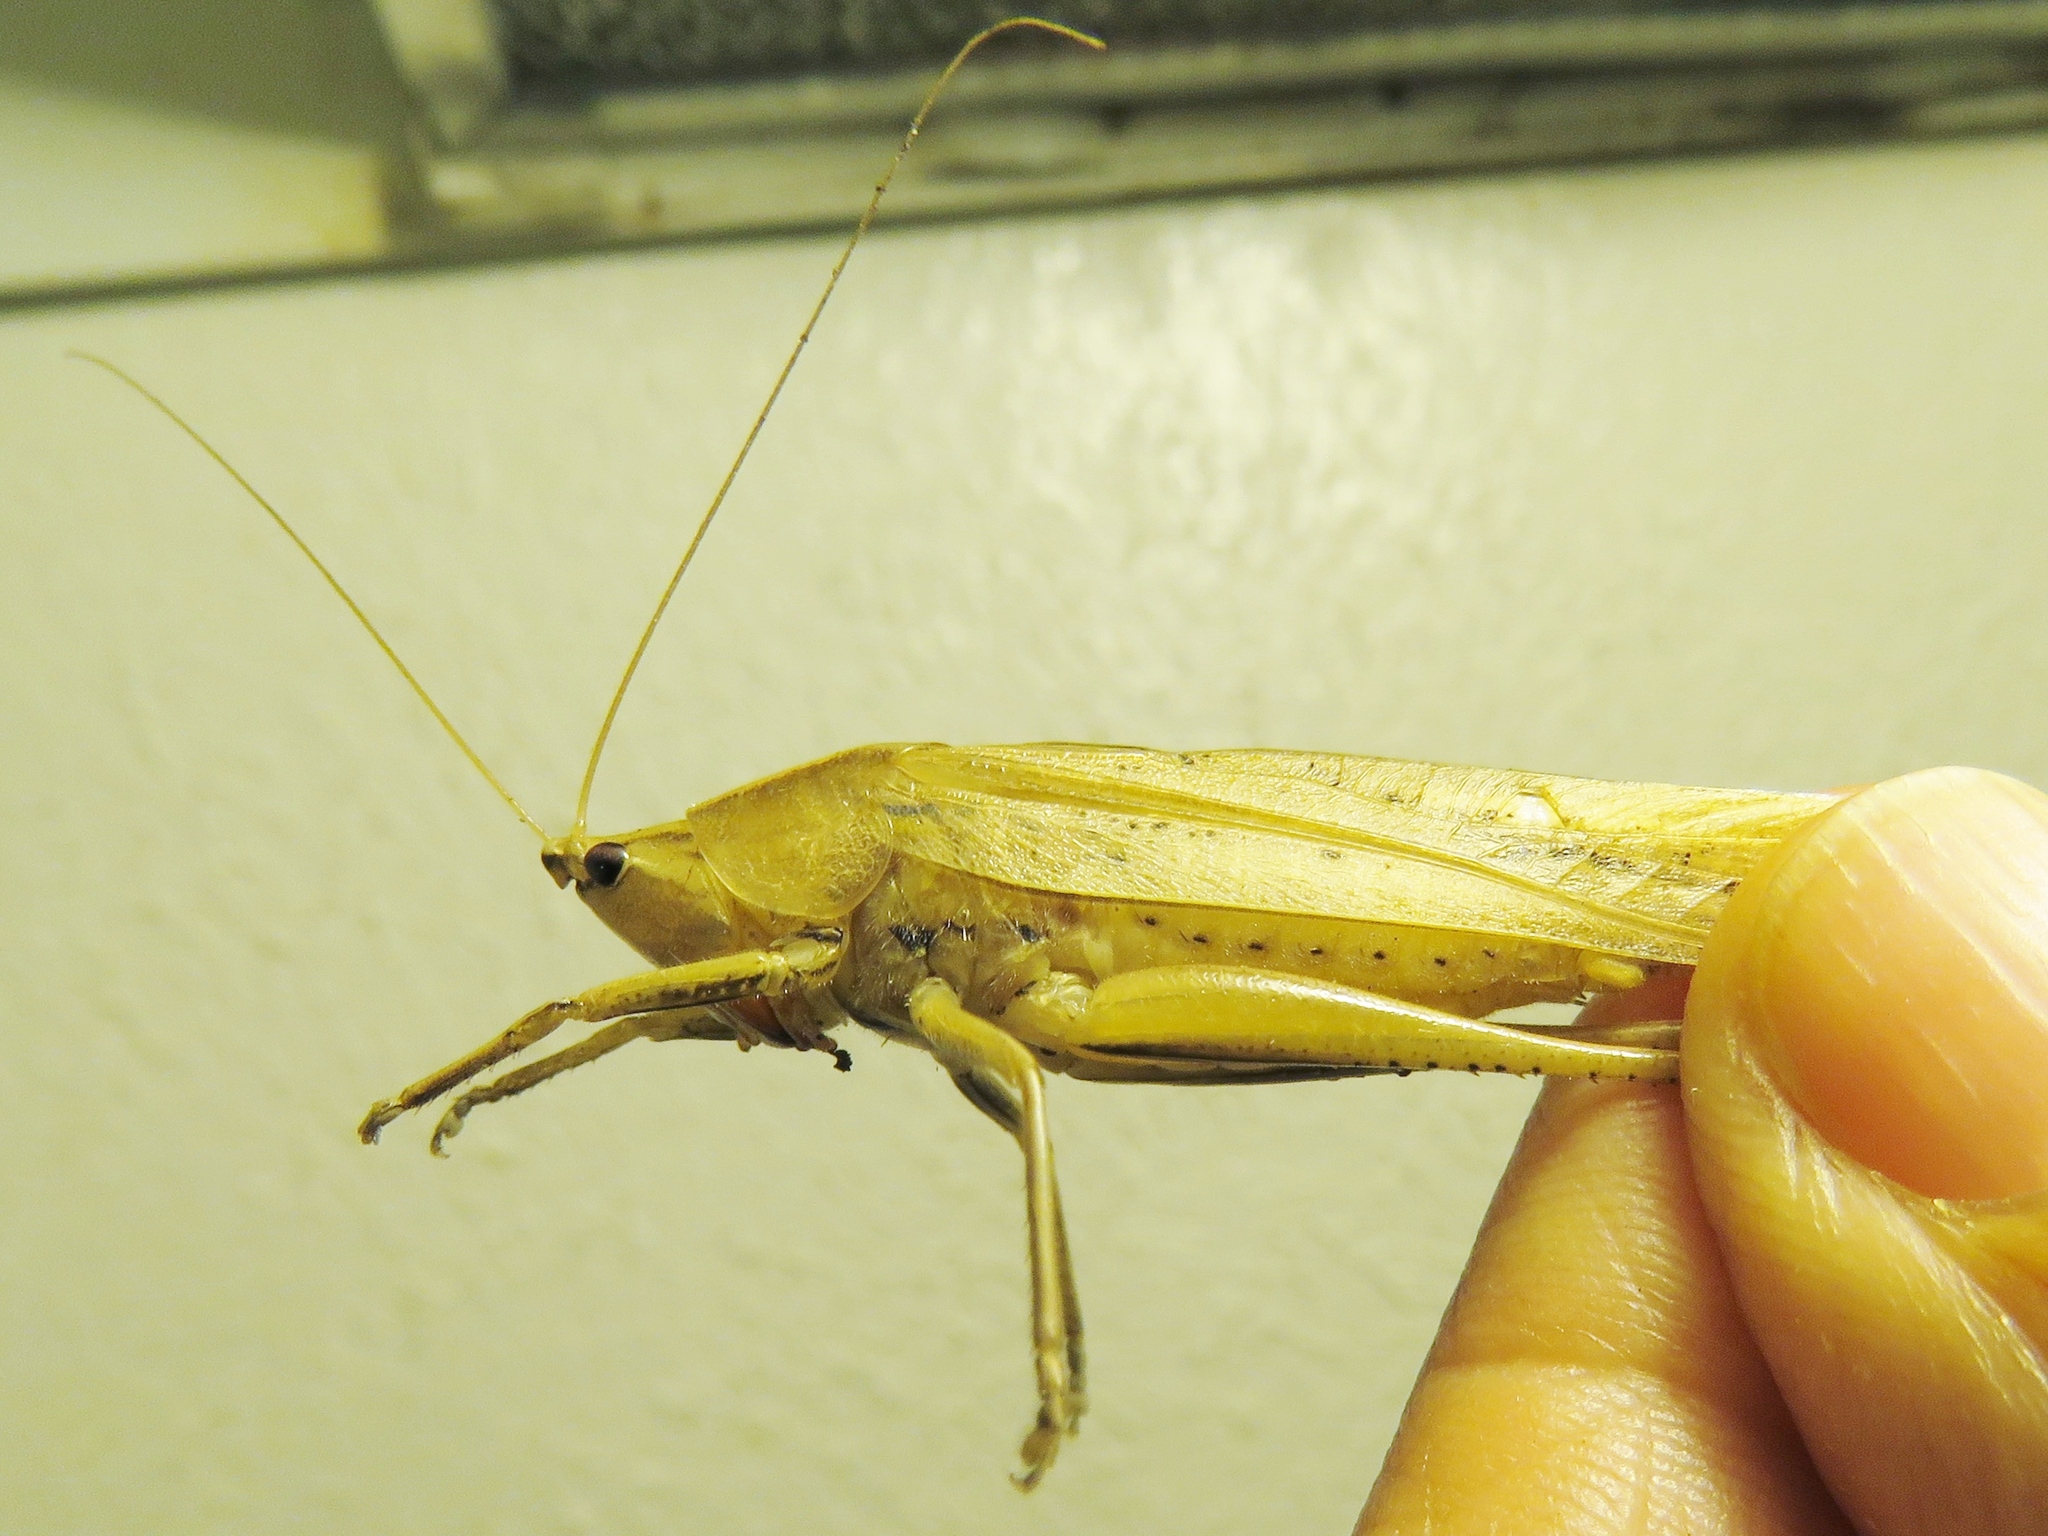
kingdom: Animalia
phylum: Arthropoda
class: Insecta
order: Orthoptera
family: Tettigoniidae
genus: Neoconocephalus
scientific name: Neoconocephalus triops
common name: Broad-tipped conehead
